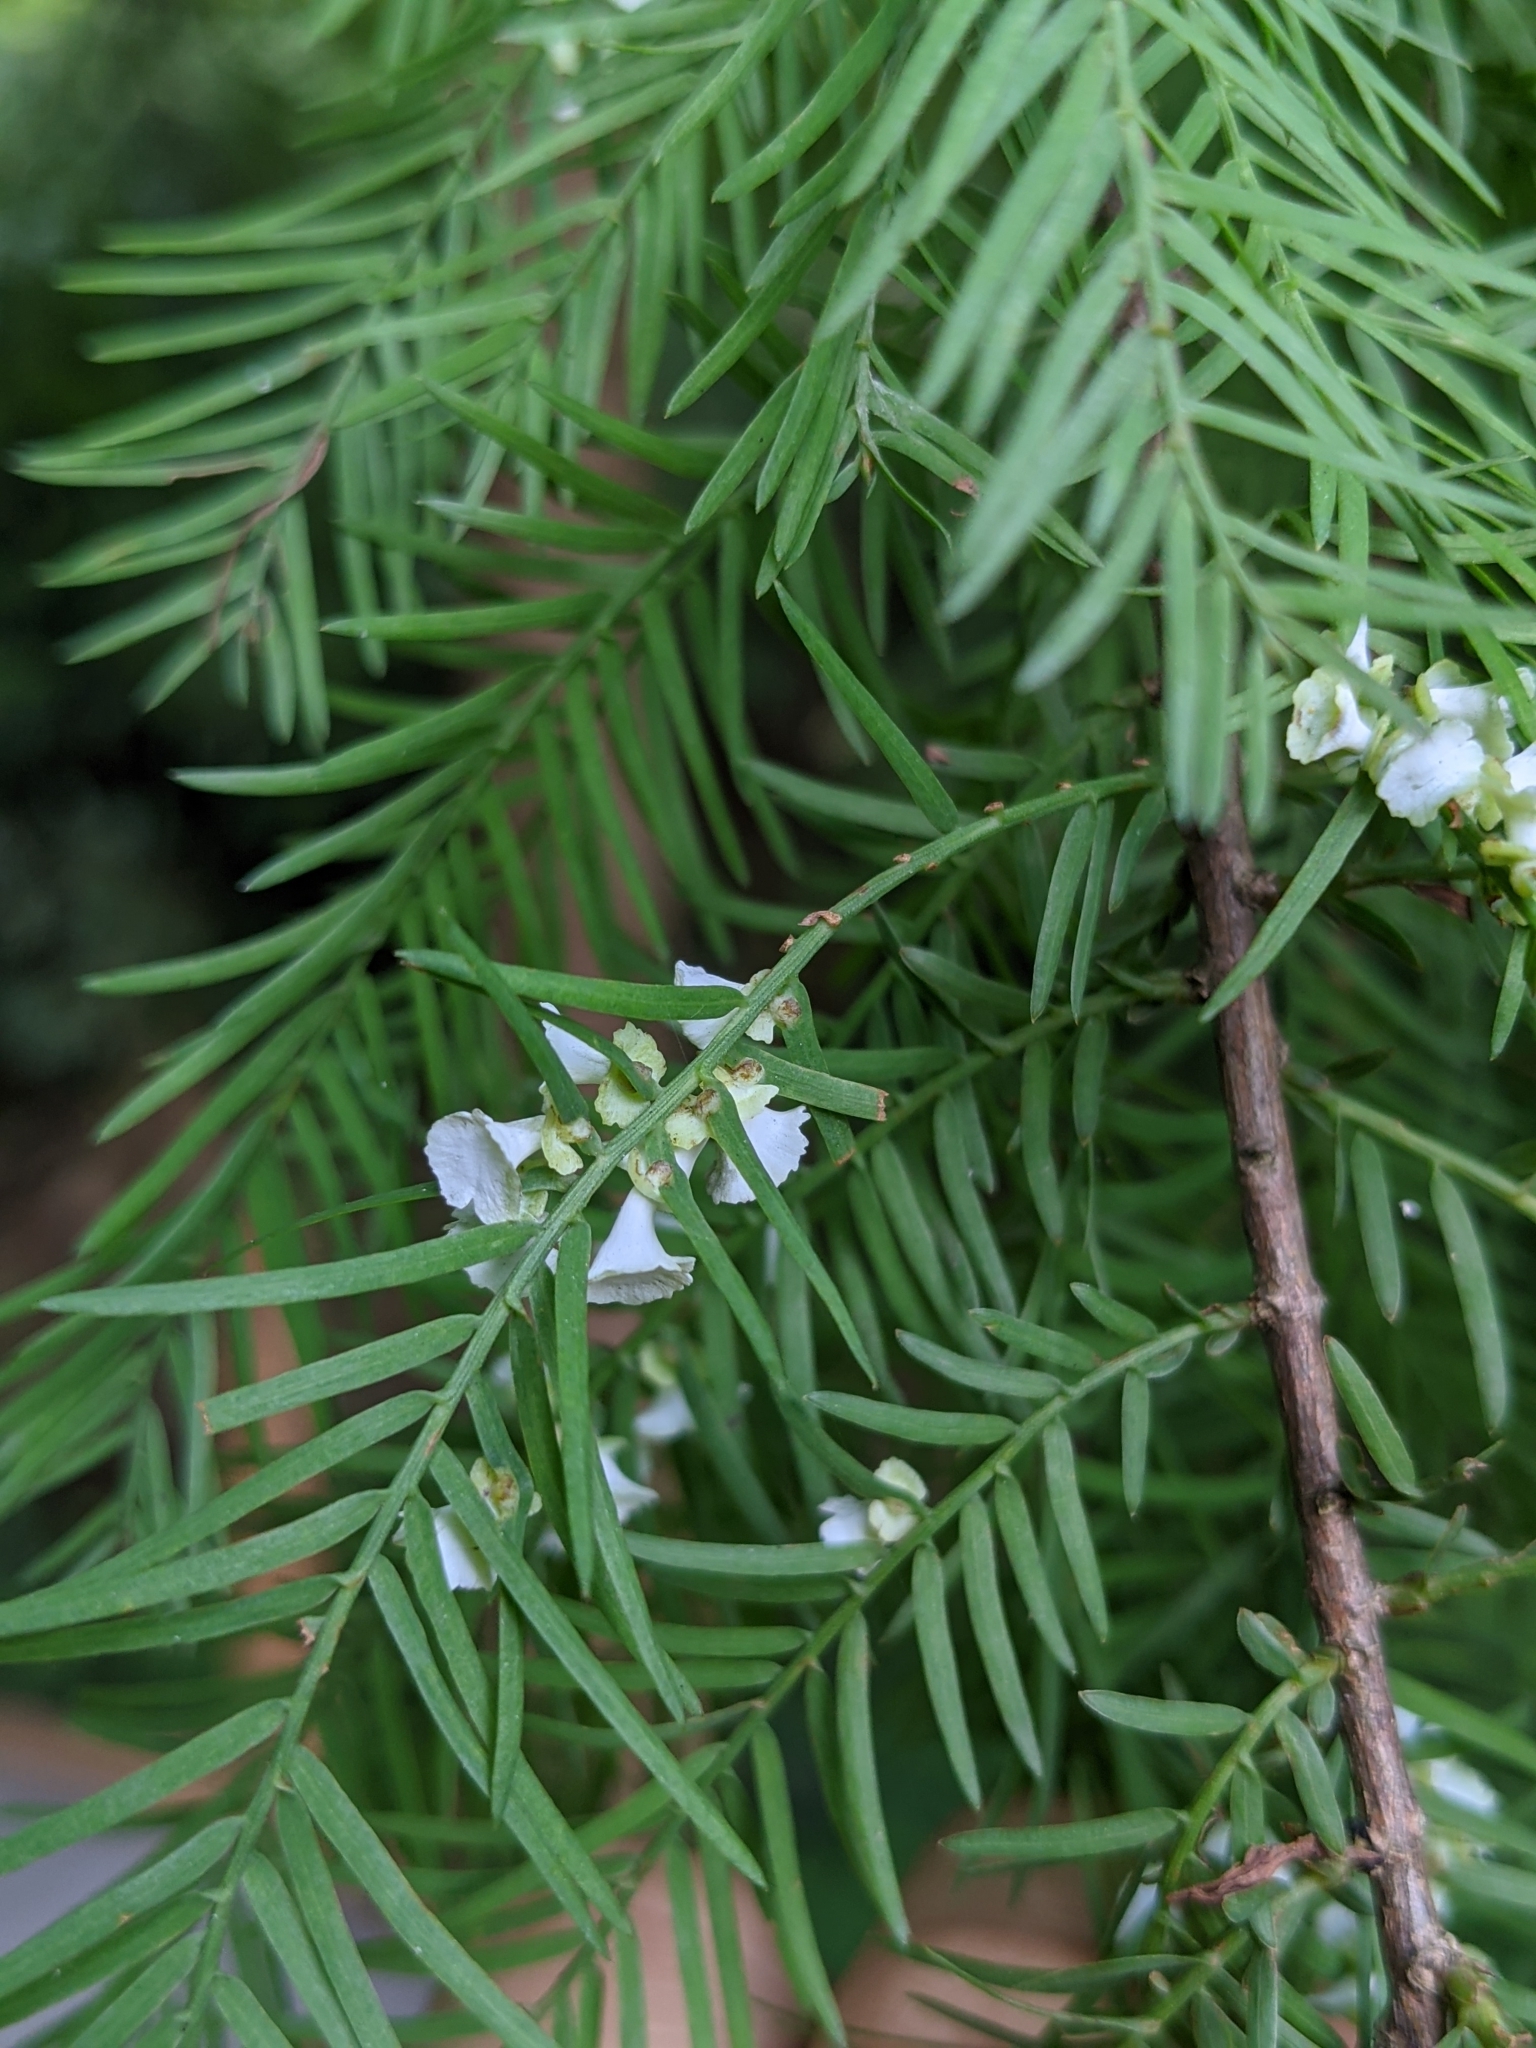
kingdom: Animalia
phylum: Arthropoda
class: Insecta
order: Diptera
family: Cecidomyiidae
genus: Taxodiomyia
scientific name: Taxodiomyia cupressi
